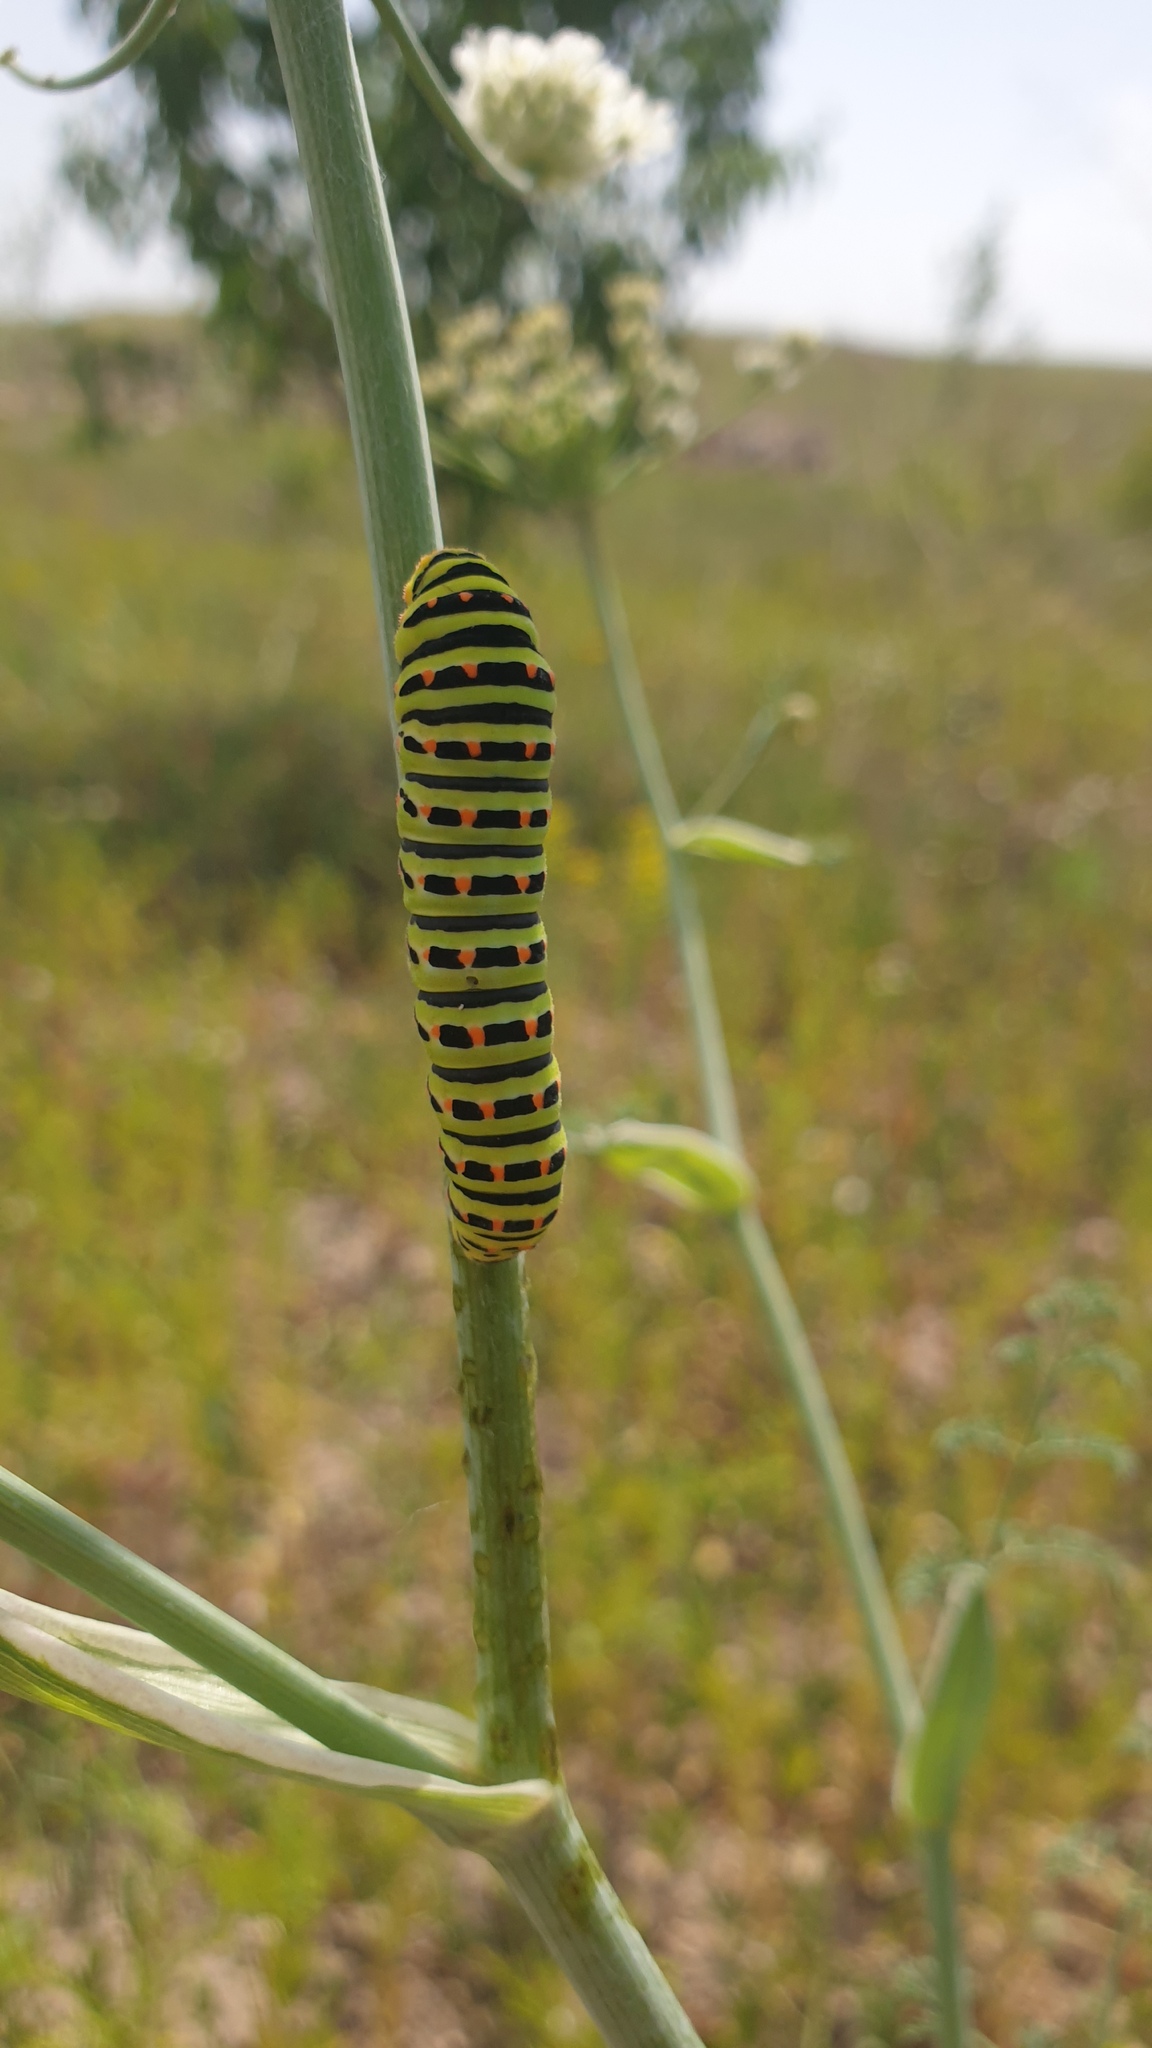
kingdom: Animalia
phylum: Arthropoda
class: Insecta
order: Lepidoptera
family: Papilionidae
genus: Papilio
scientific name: Papilio machaon
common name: Swallowtail
